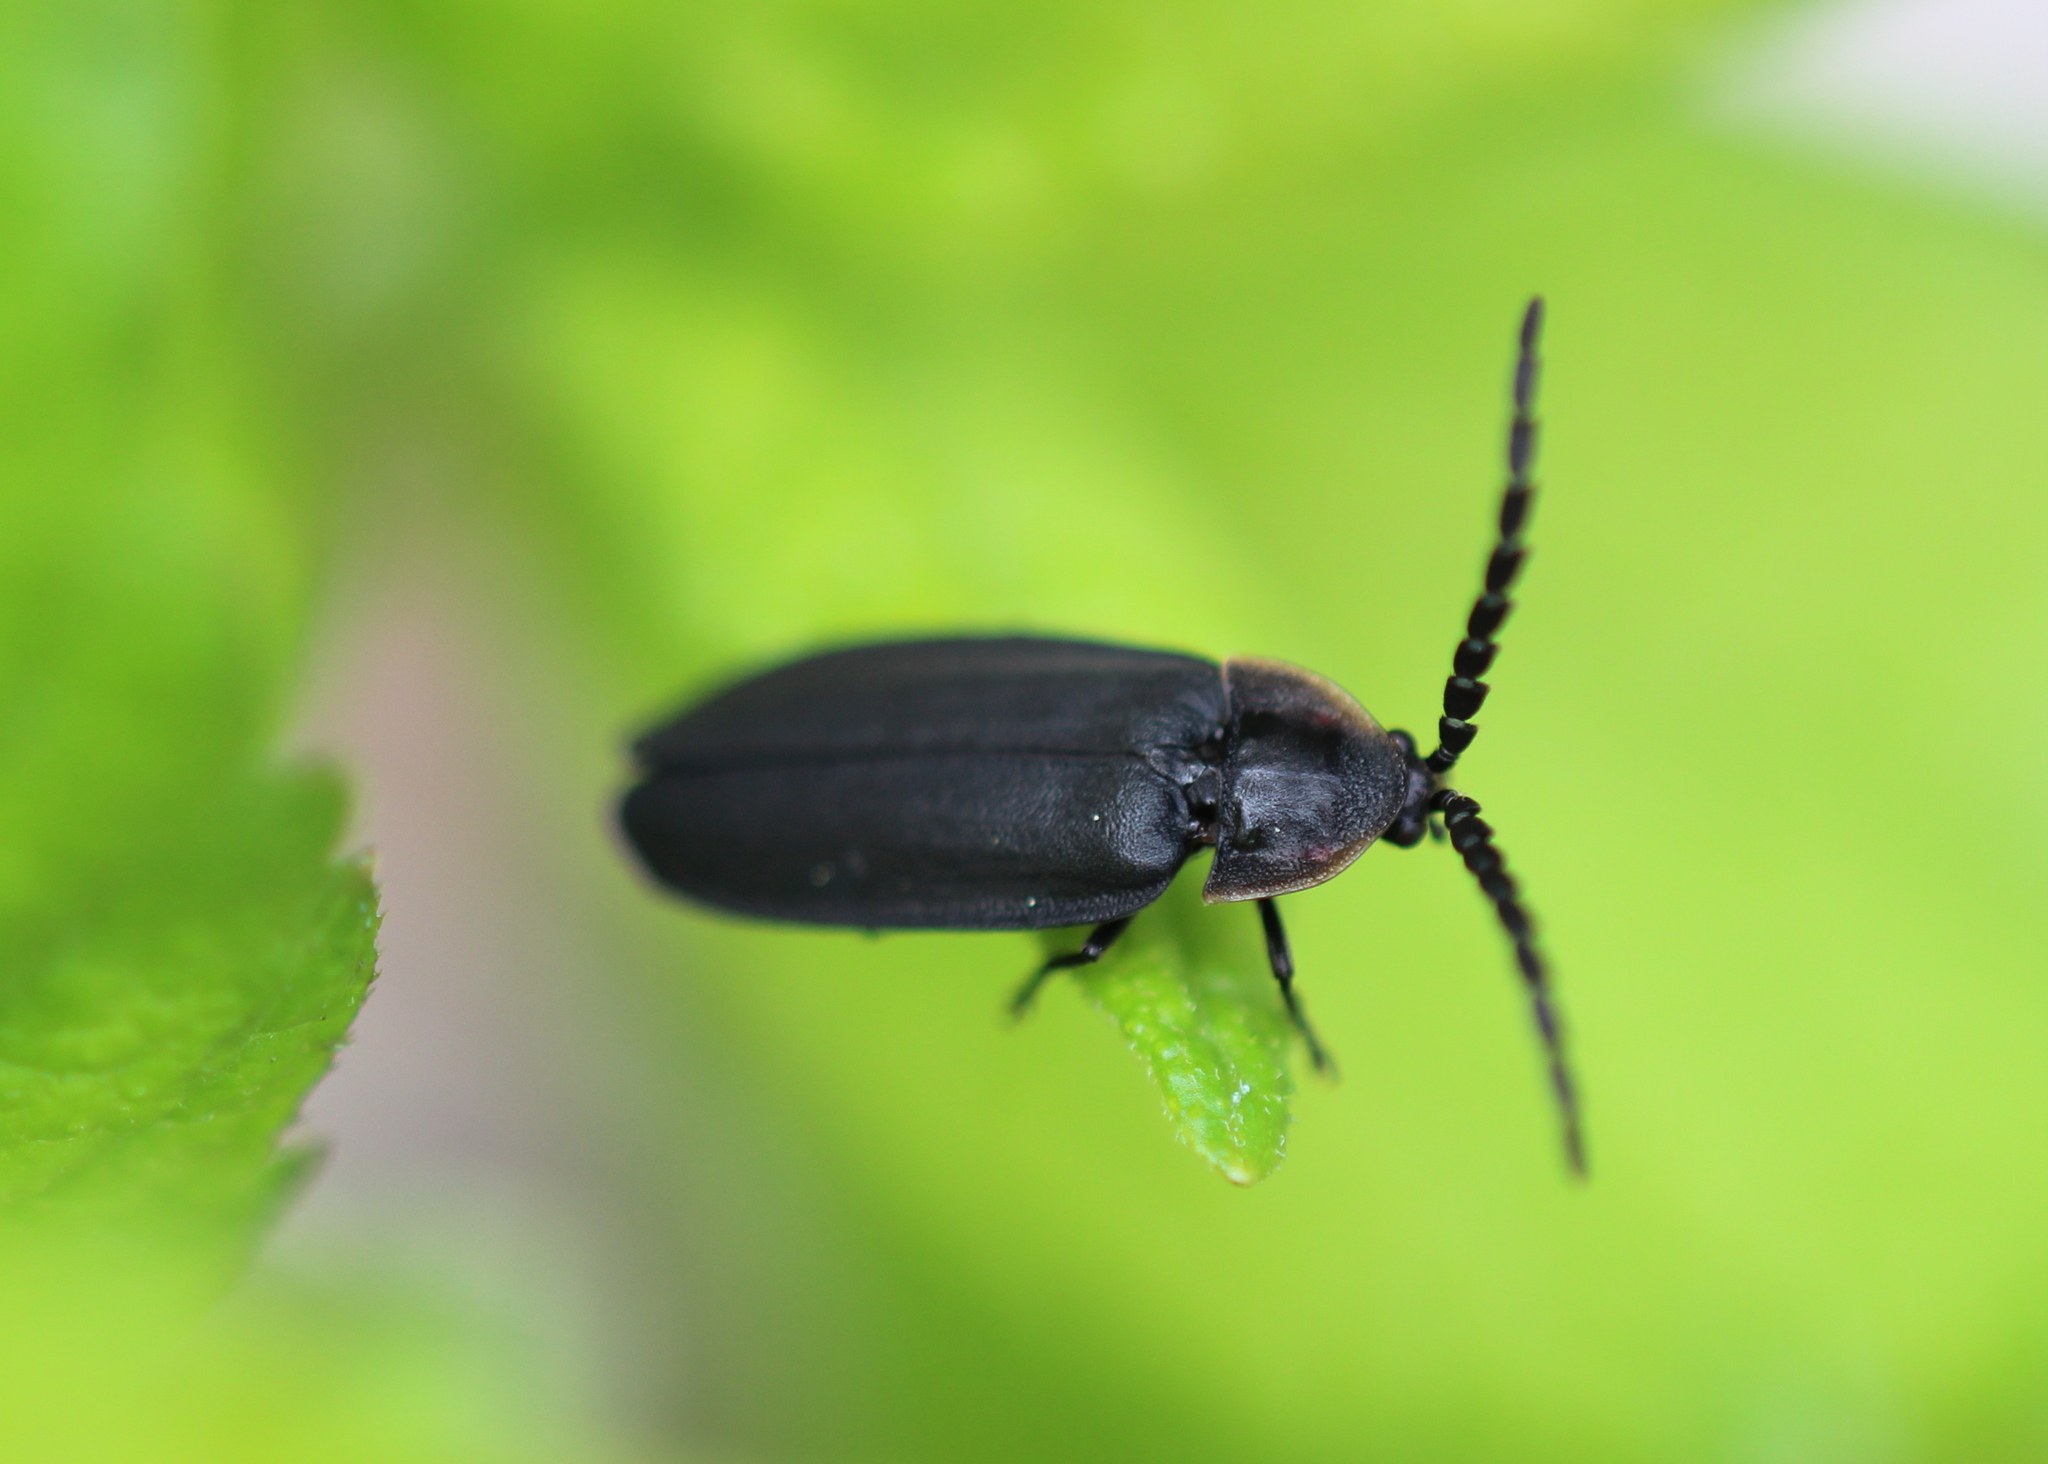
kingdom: Animalia
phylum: Arthropoda
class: Insecta
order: Coleoptera
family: Lampyridae
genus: Lucidota
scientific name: Lucidota atra
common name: Black firefly
